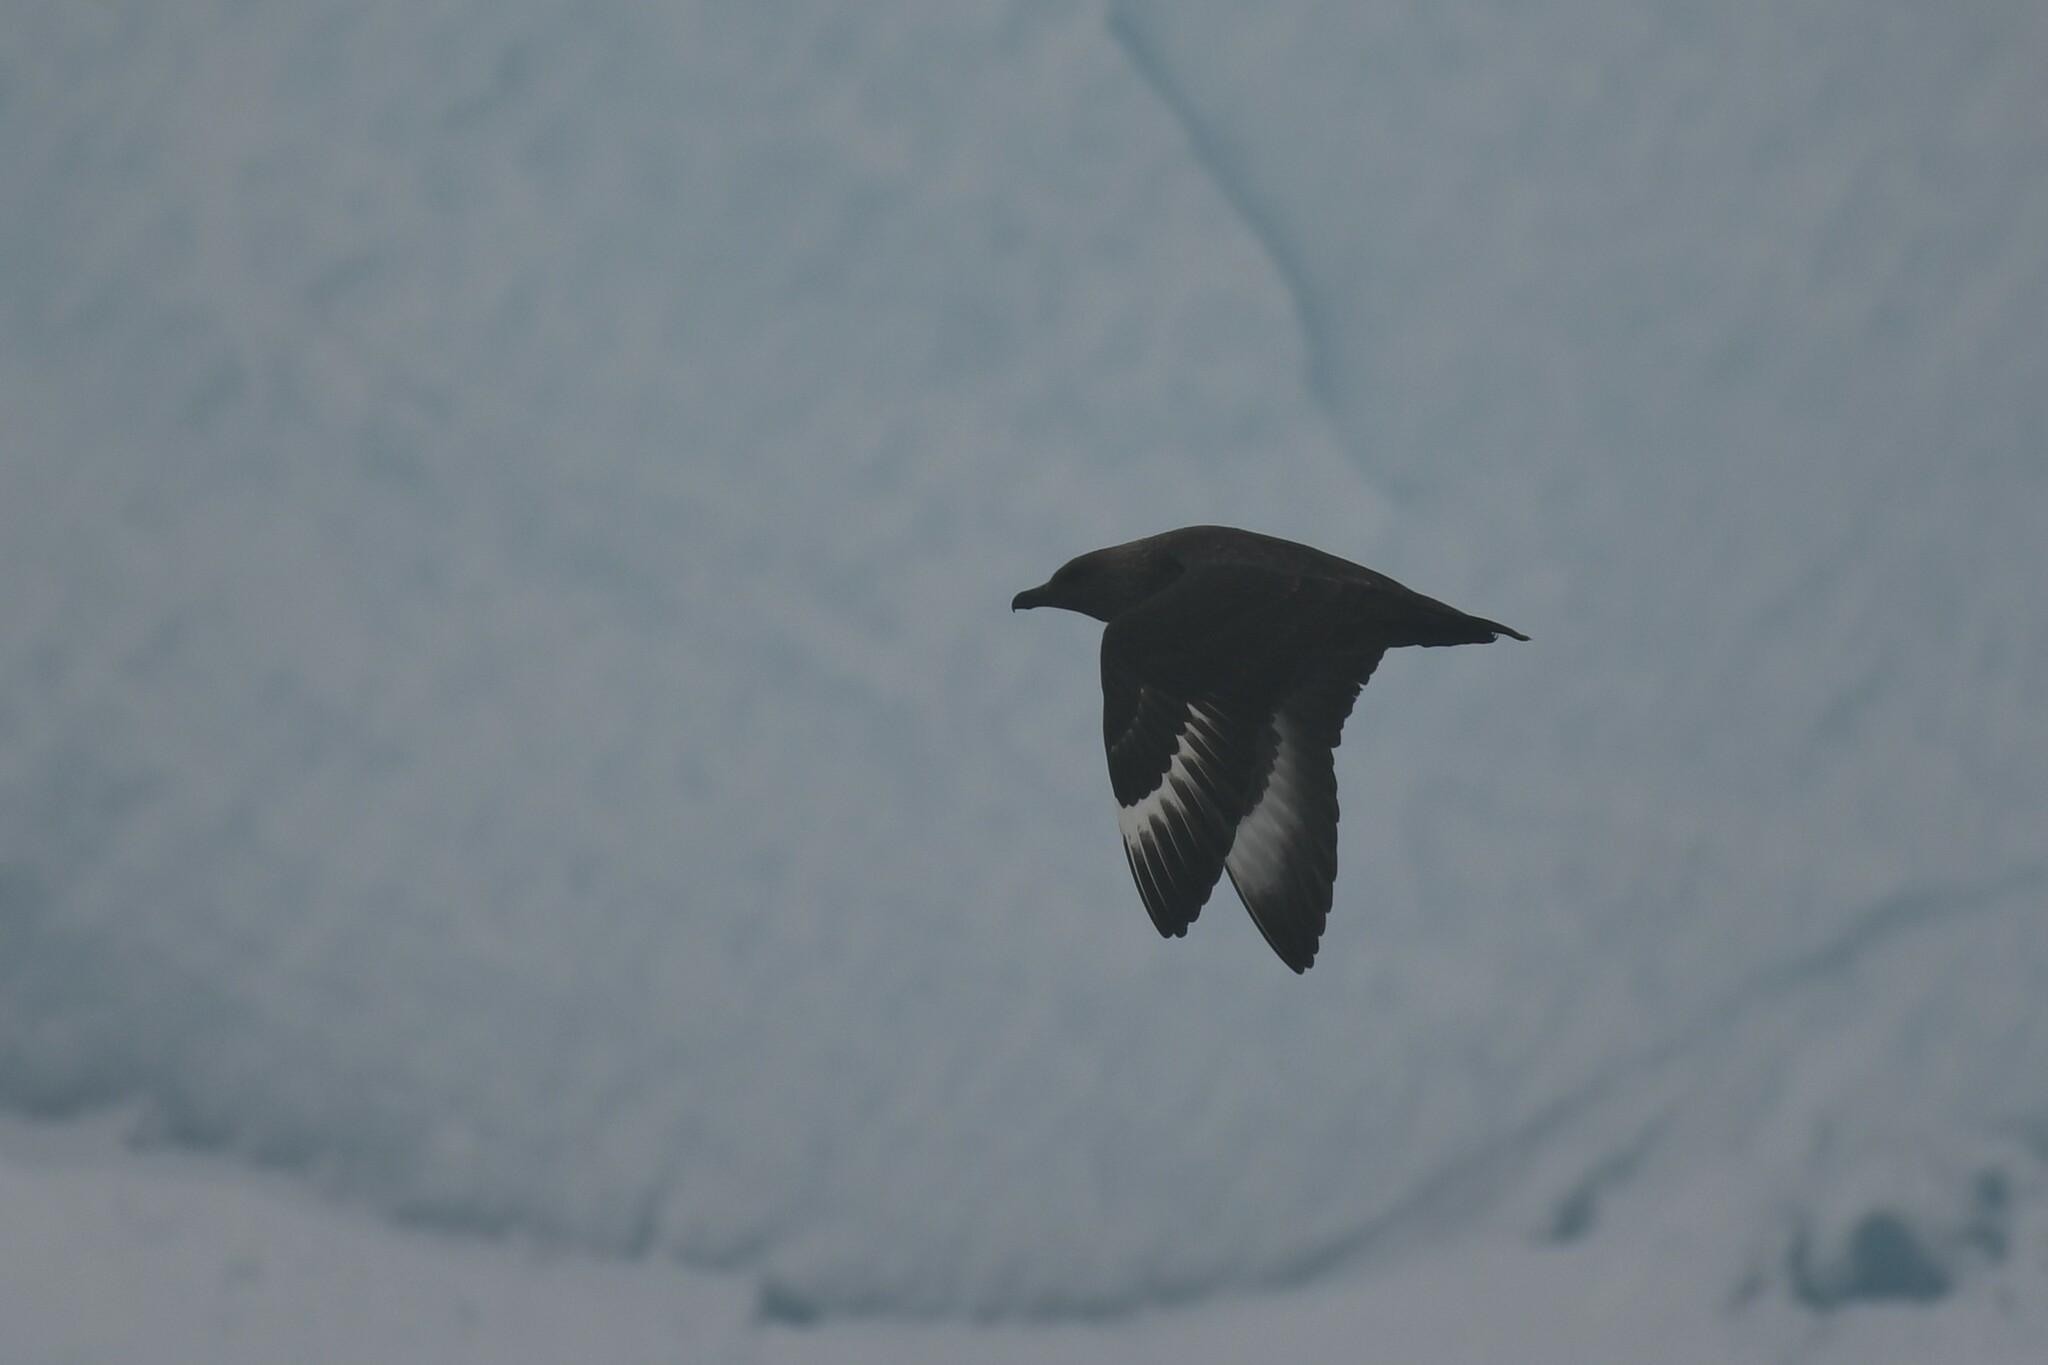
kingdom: Animalia
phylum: Chordata
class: Aves
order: Charadriiformes
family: Stercorariidae
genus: Stercorarius
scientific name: Stercorarius maccormicki
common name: South polar skua
